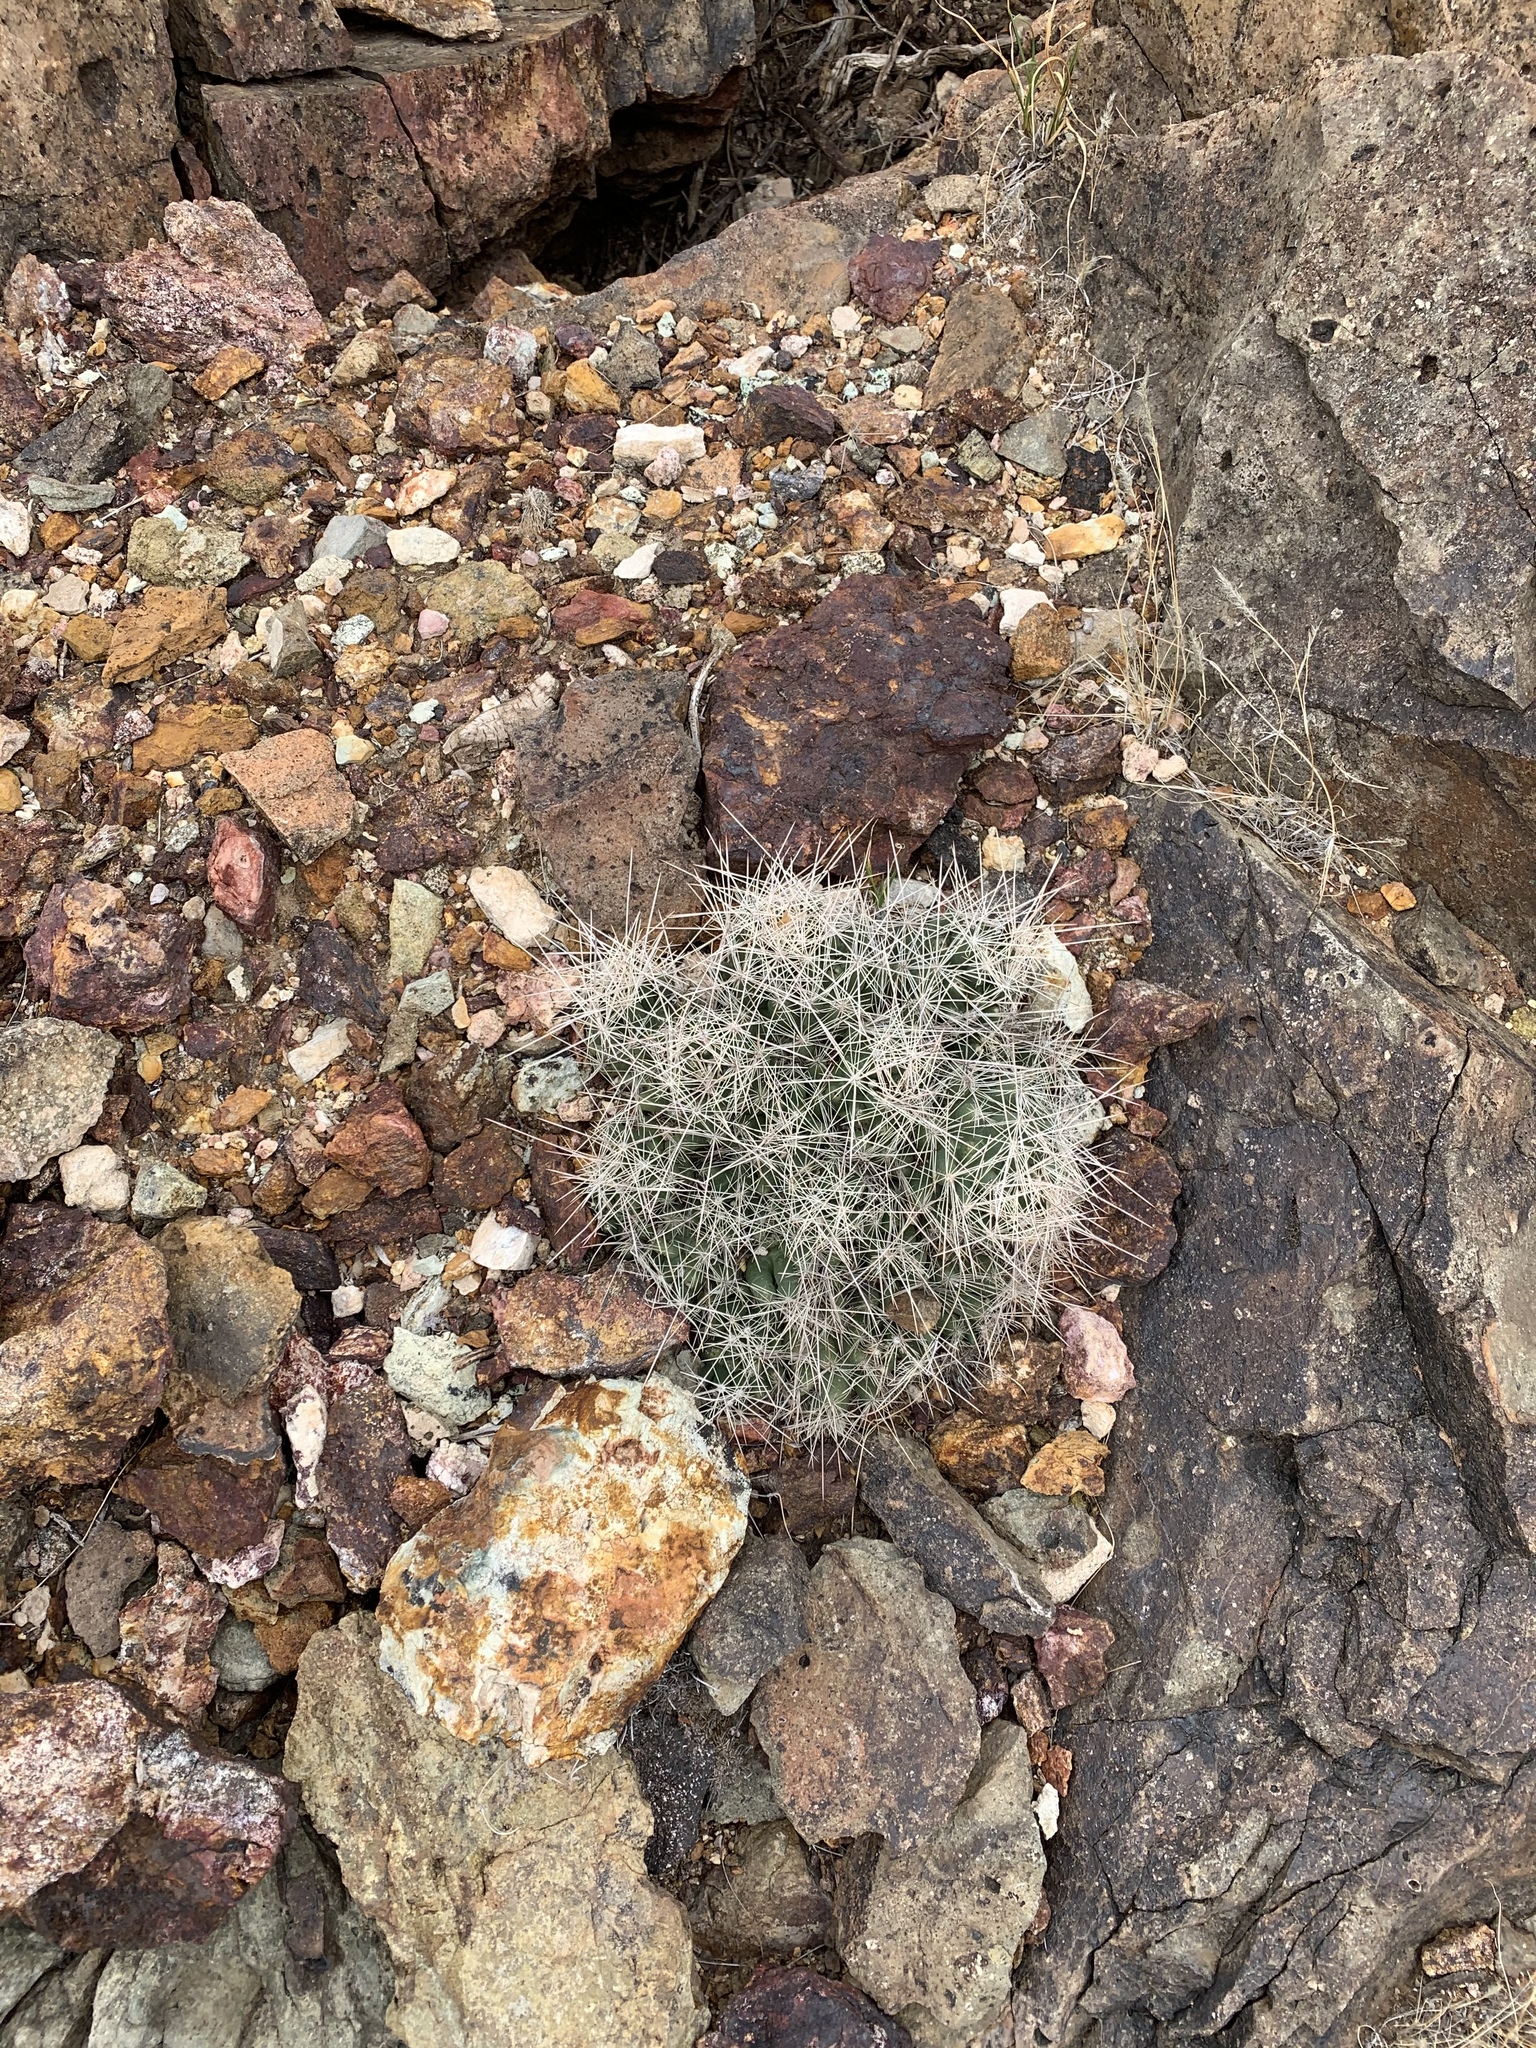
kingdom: Plantae
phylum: Tracheophyta
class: Magnoliopsida
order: Caryophyllales
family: Cactaceae
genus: Coryphantha
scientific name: Coryphantha macromeris
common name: Nipple beehive cactus
